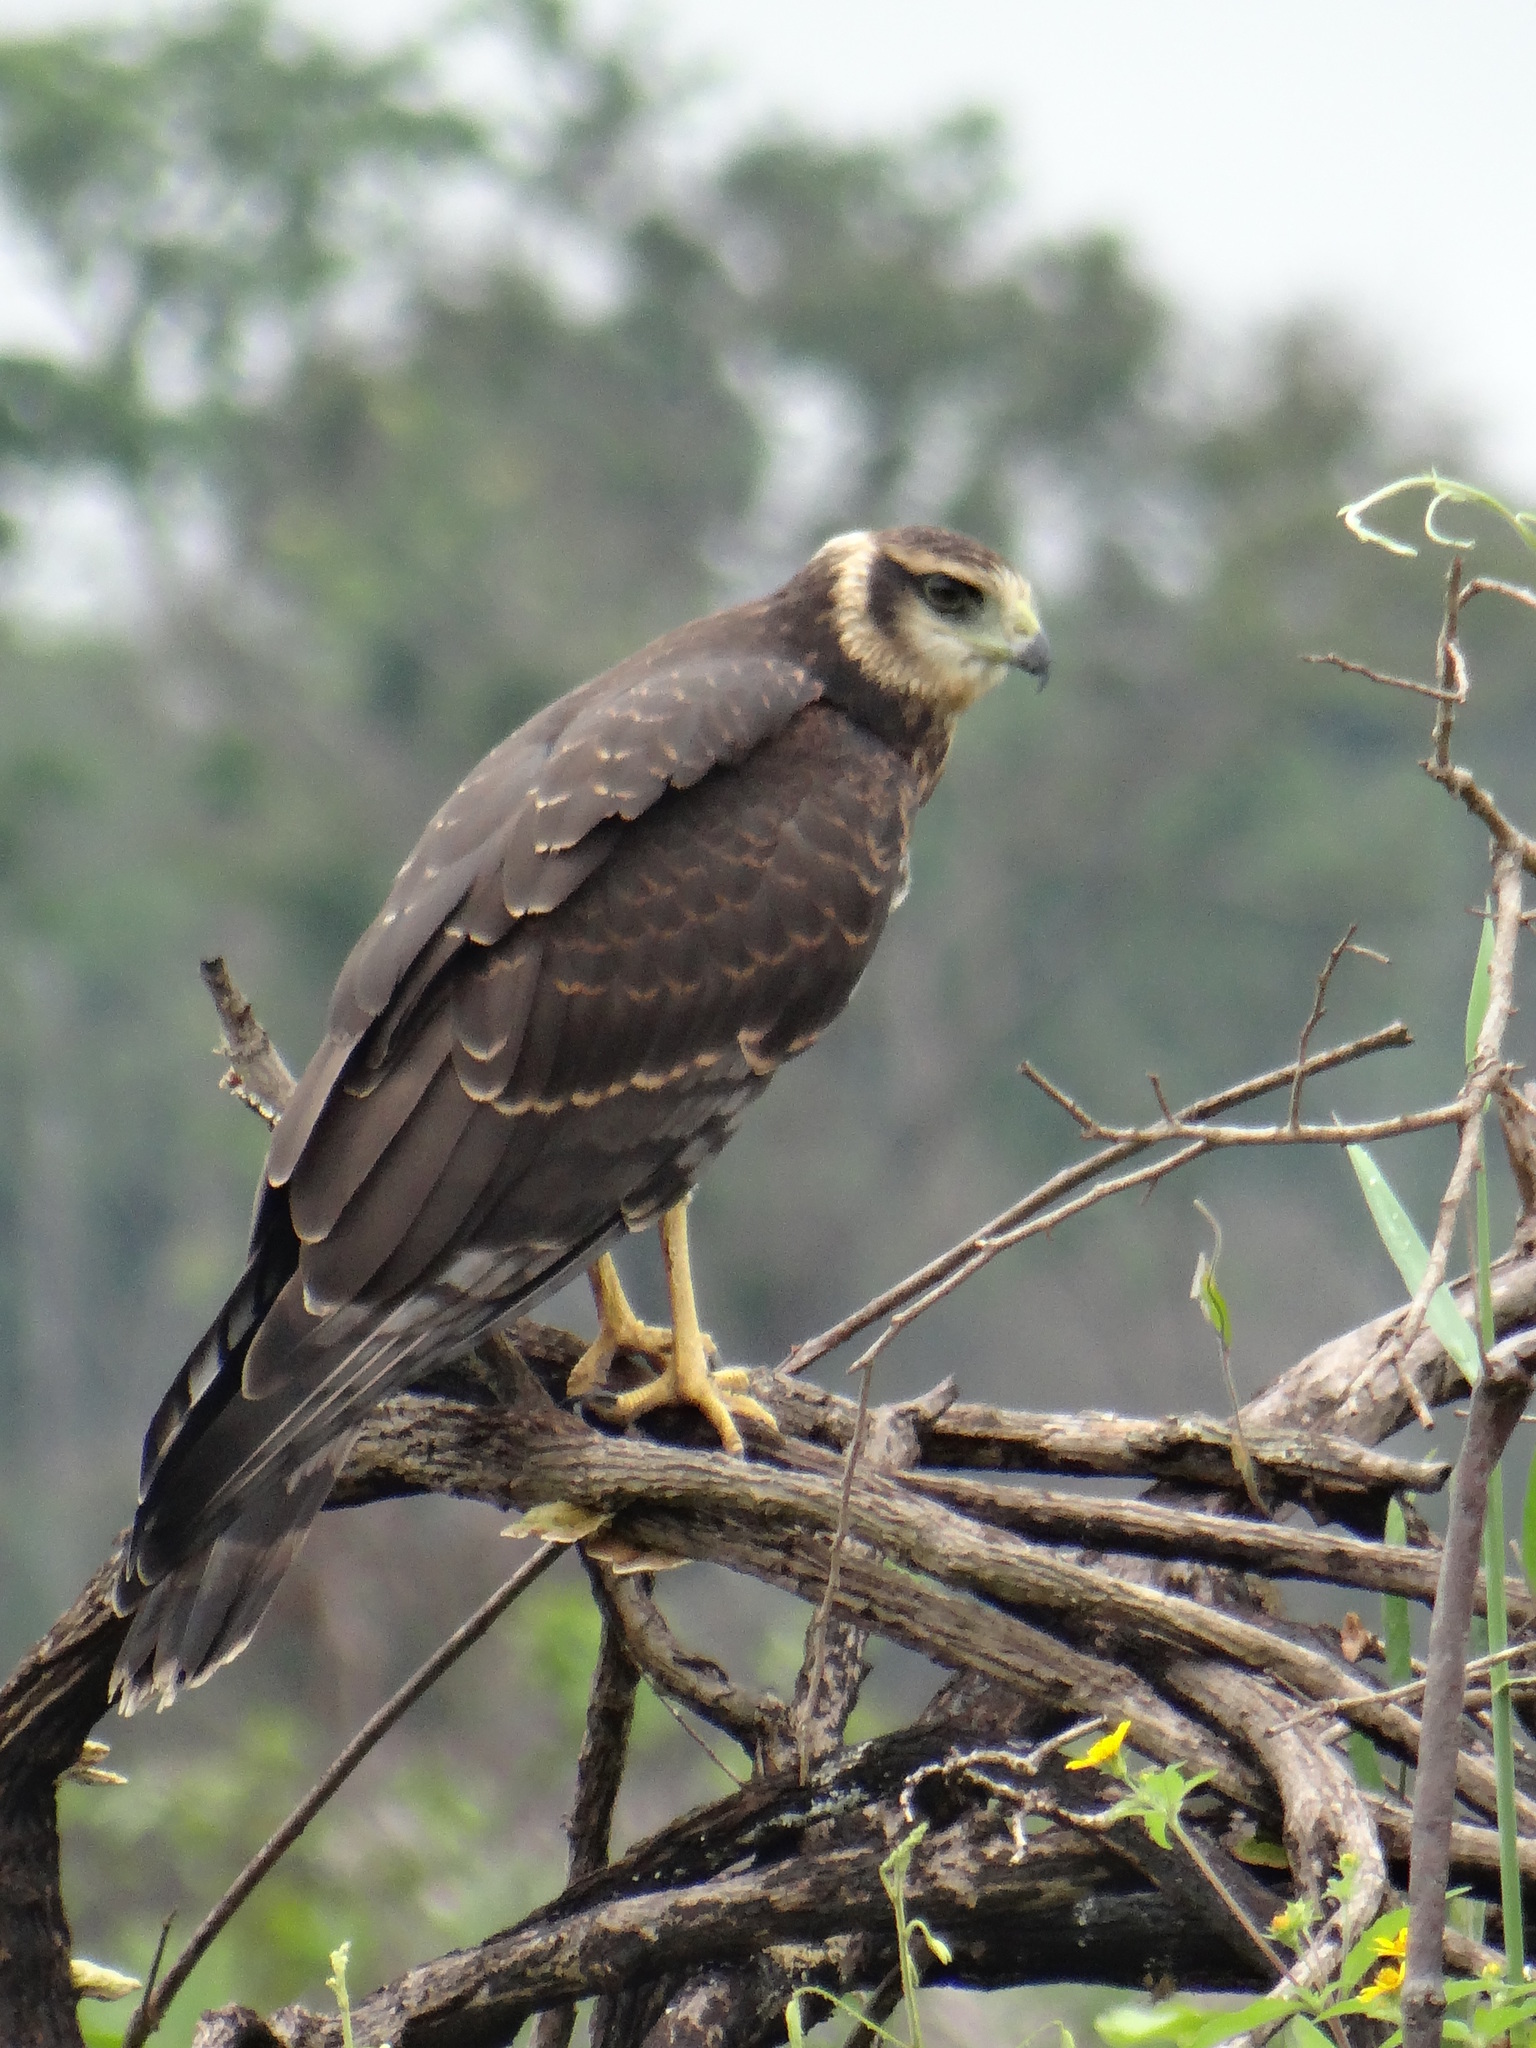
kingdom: Animalia
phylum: Chordata
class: Aves
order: Accipitriformes
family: Accipitridae
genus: Circus
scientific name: Circus buffoni
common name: Long-winged harrier
